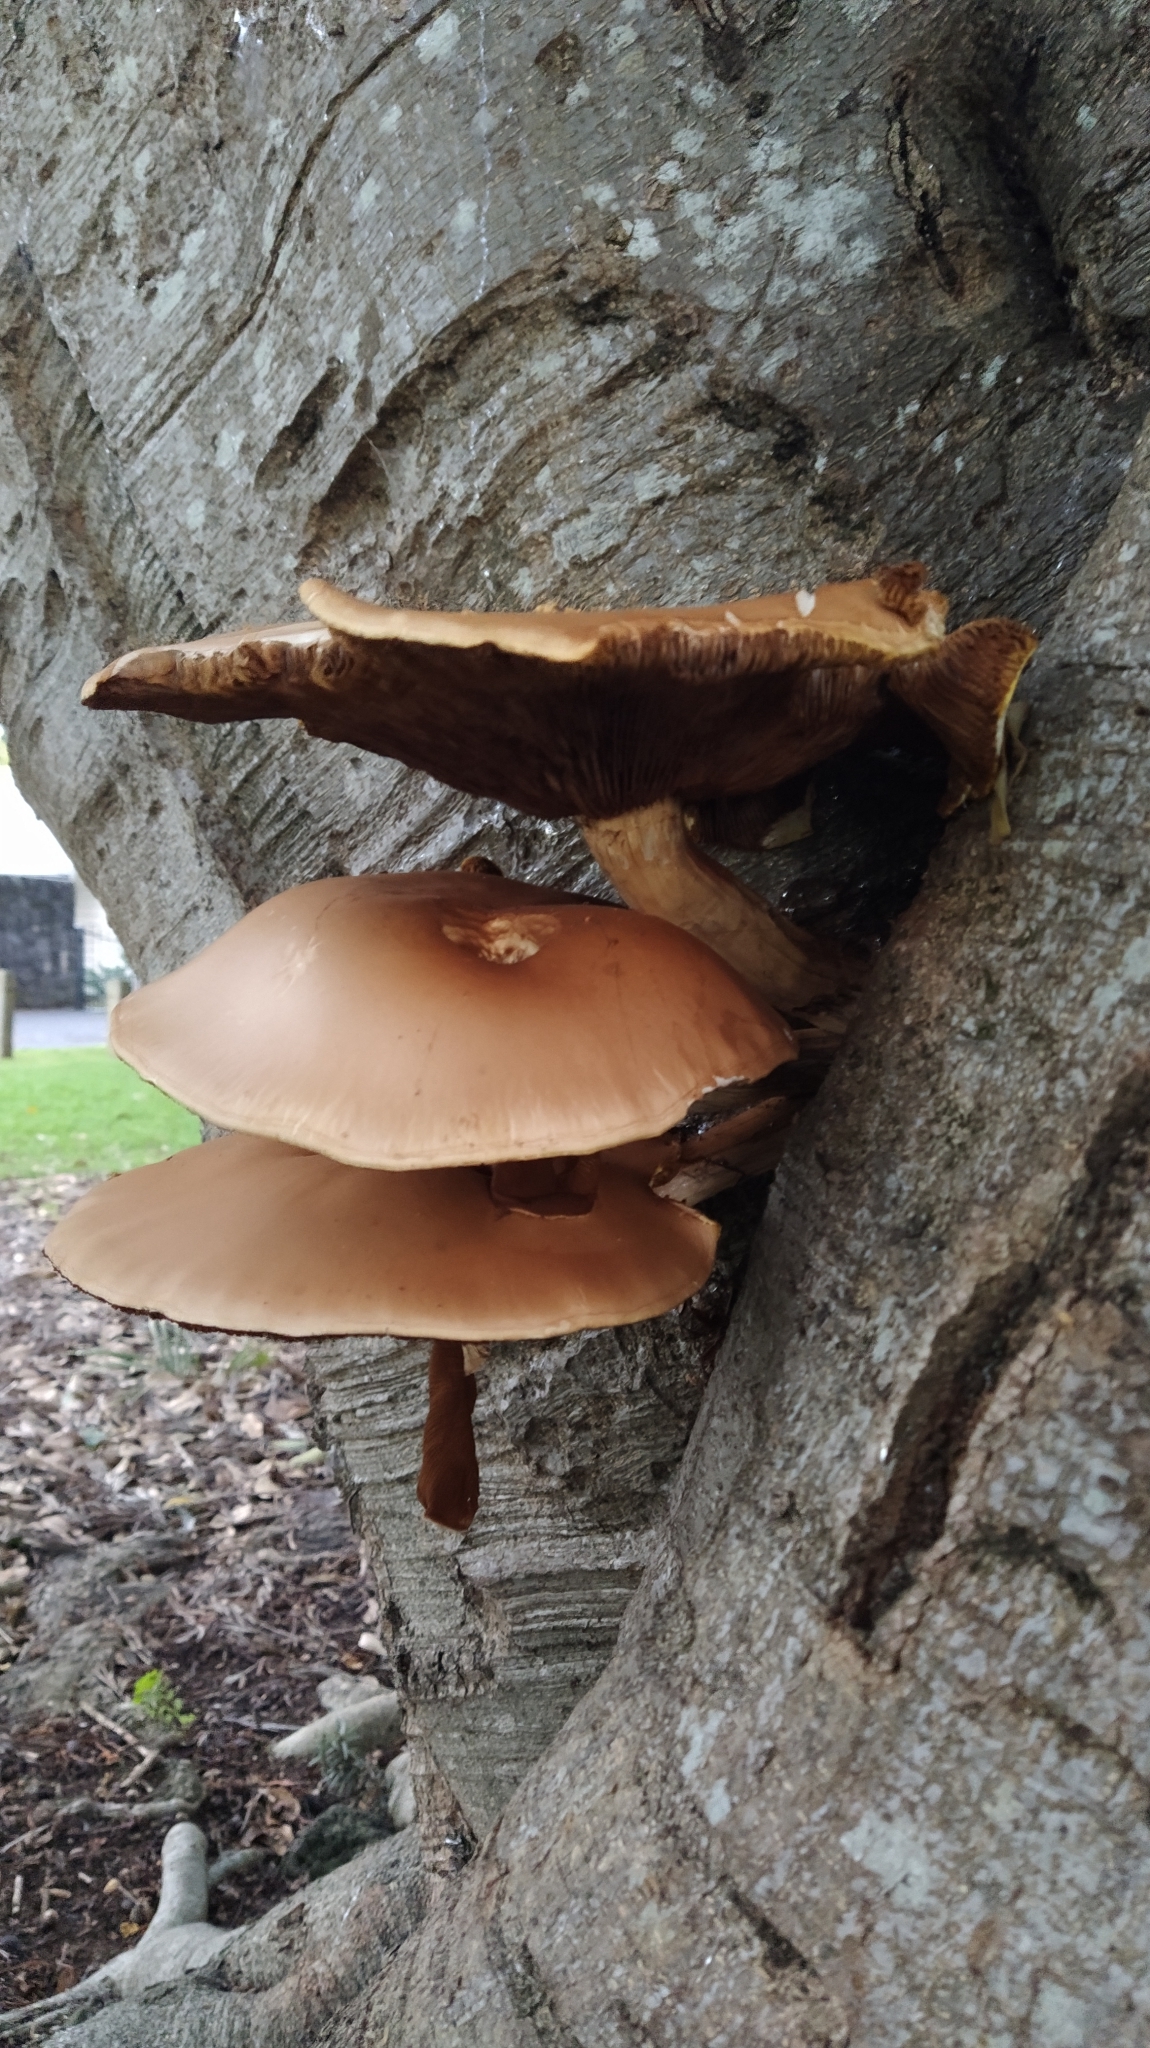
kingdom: Fungi
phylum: Basidiomycota
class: Agaricomycetes
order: Agaricales
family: Tubariaceae
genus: Cyclocybe
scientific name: Cyclocybe parasitica
